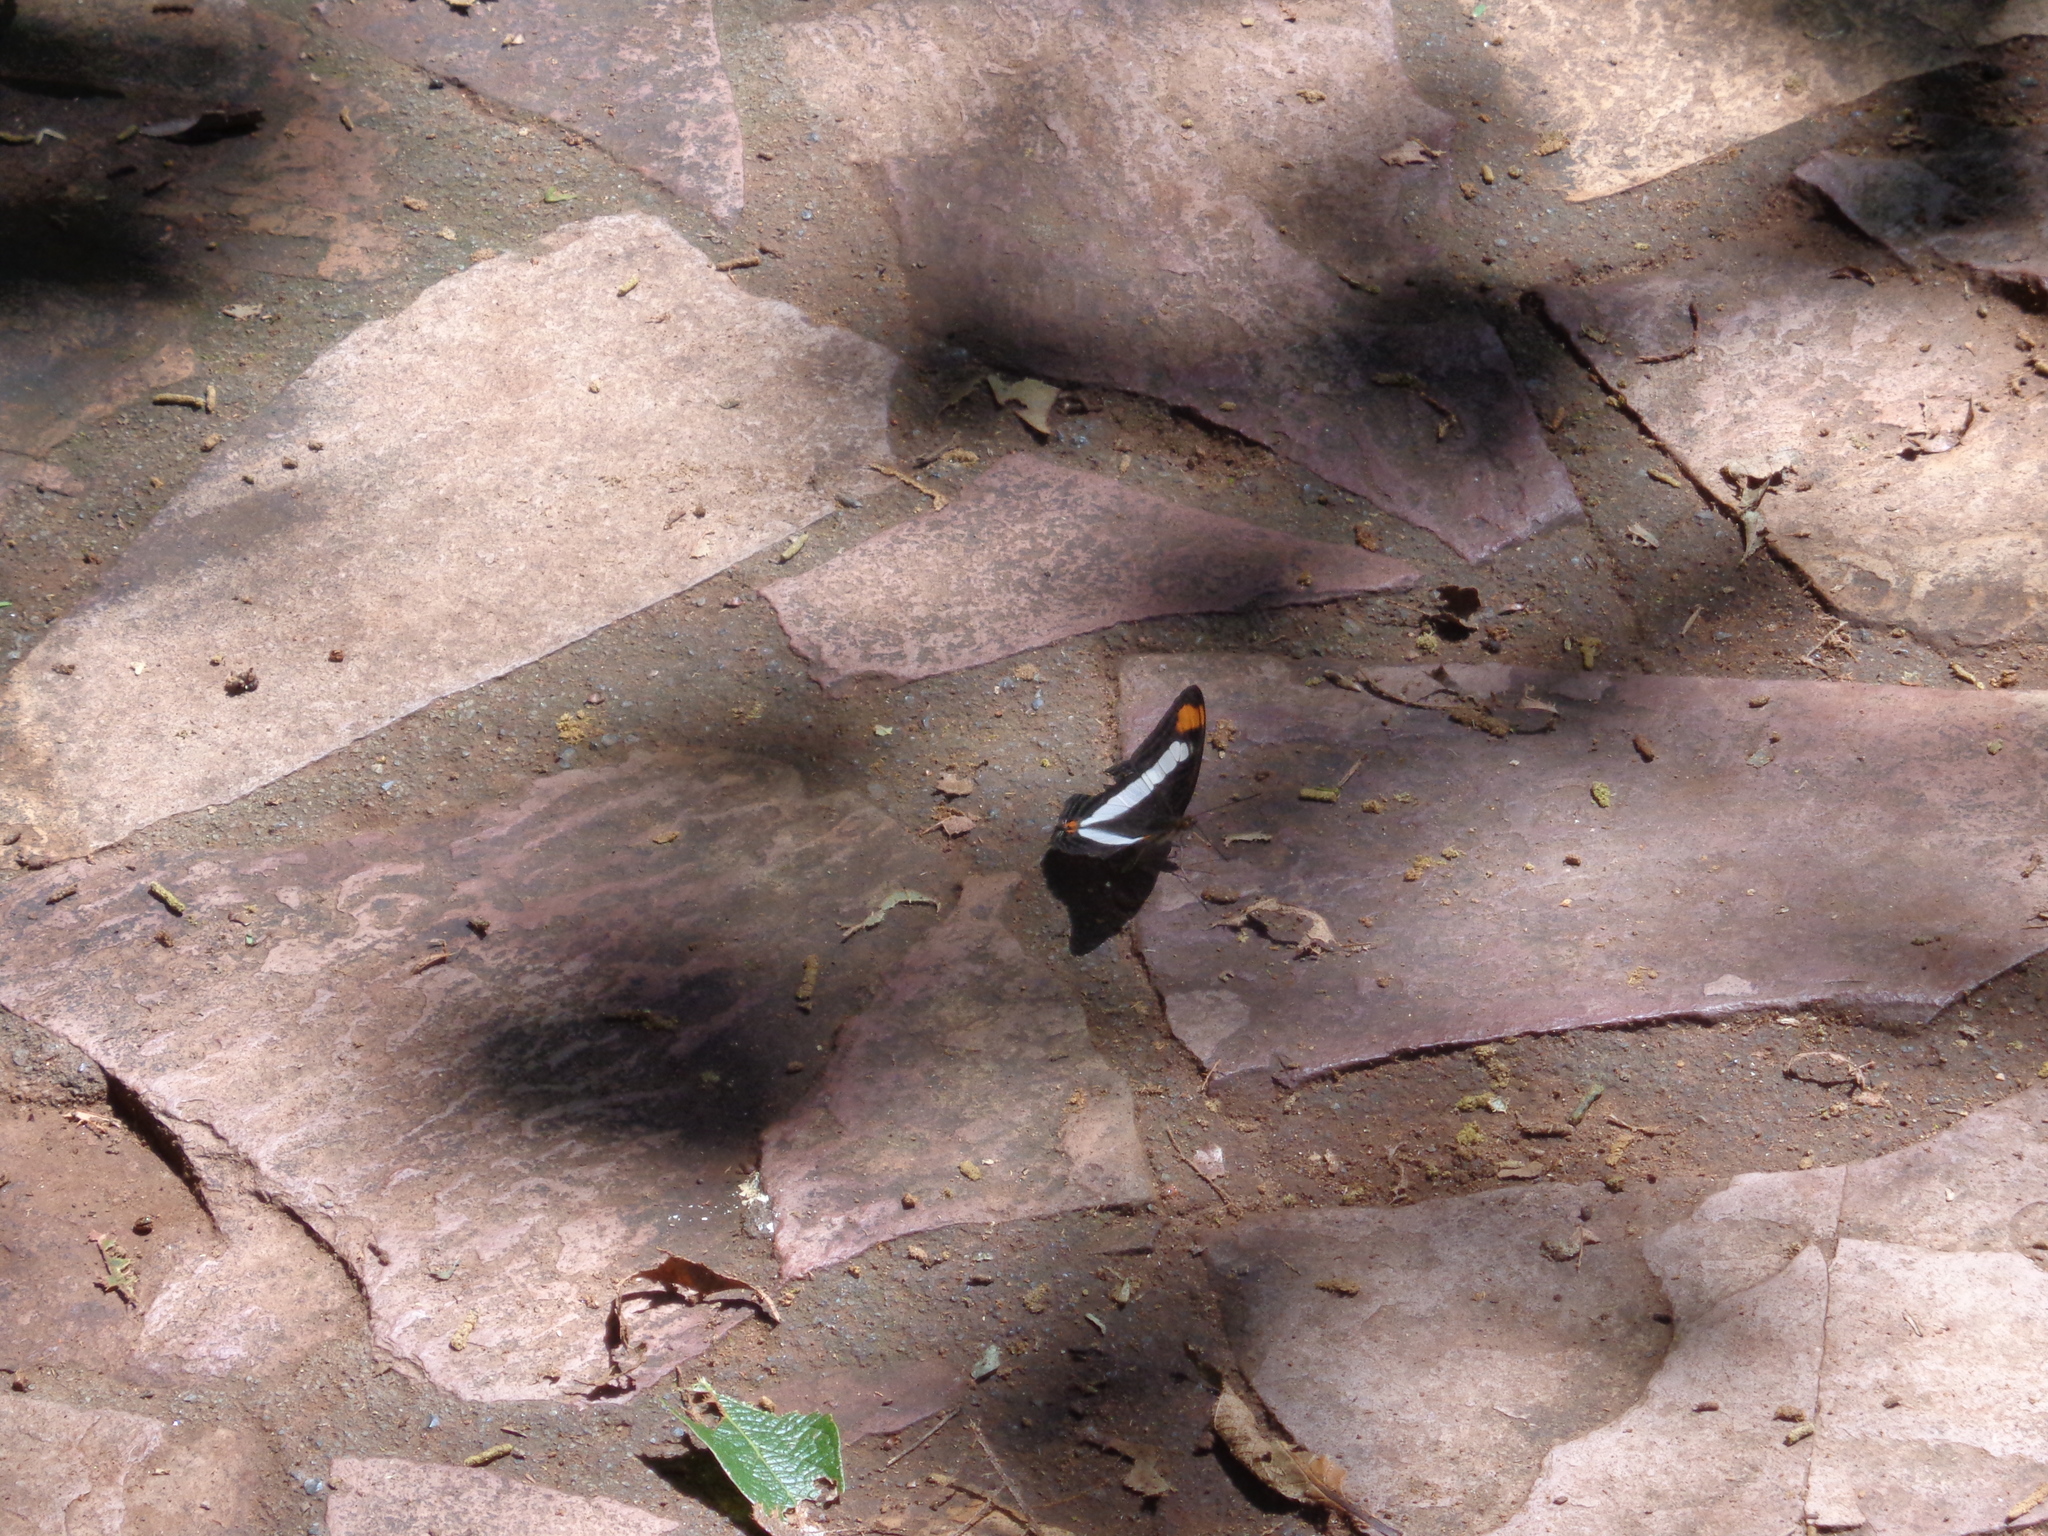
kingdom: Animalia
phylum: Arthropoda
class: Insecta
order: Lepidoptera
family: Nymphalidae
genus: Limenitis
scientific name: Limenitis Adelpha basiloides
